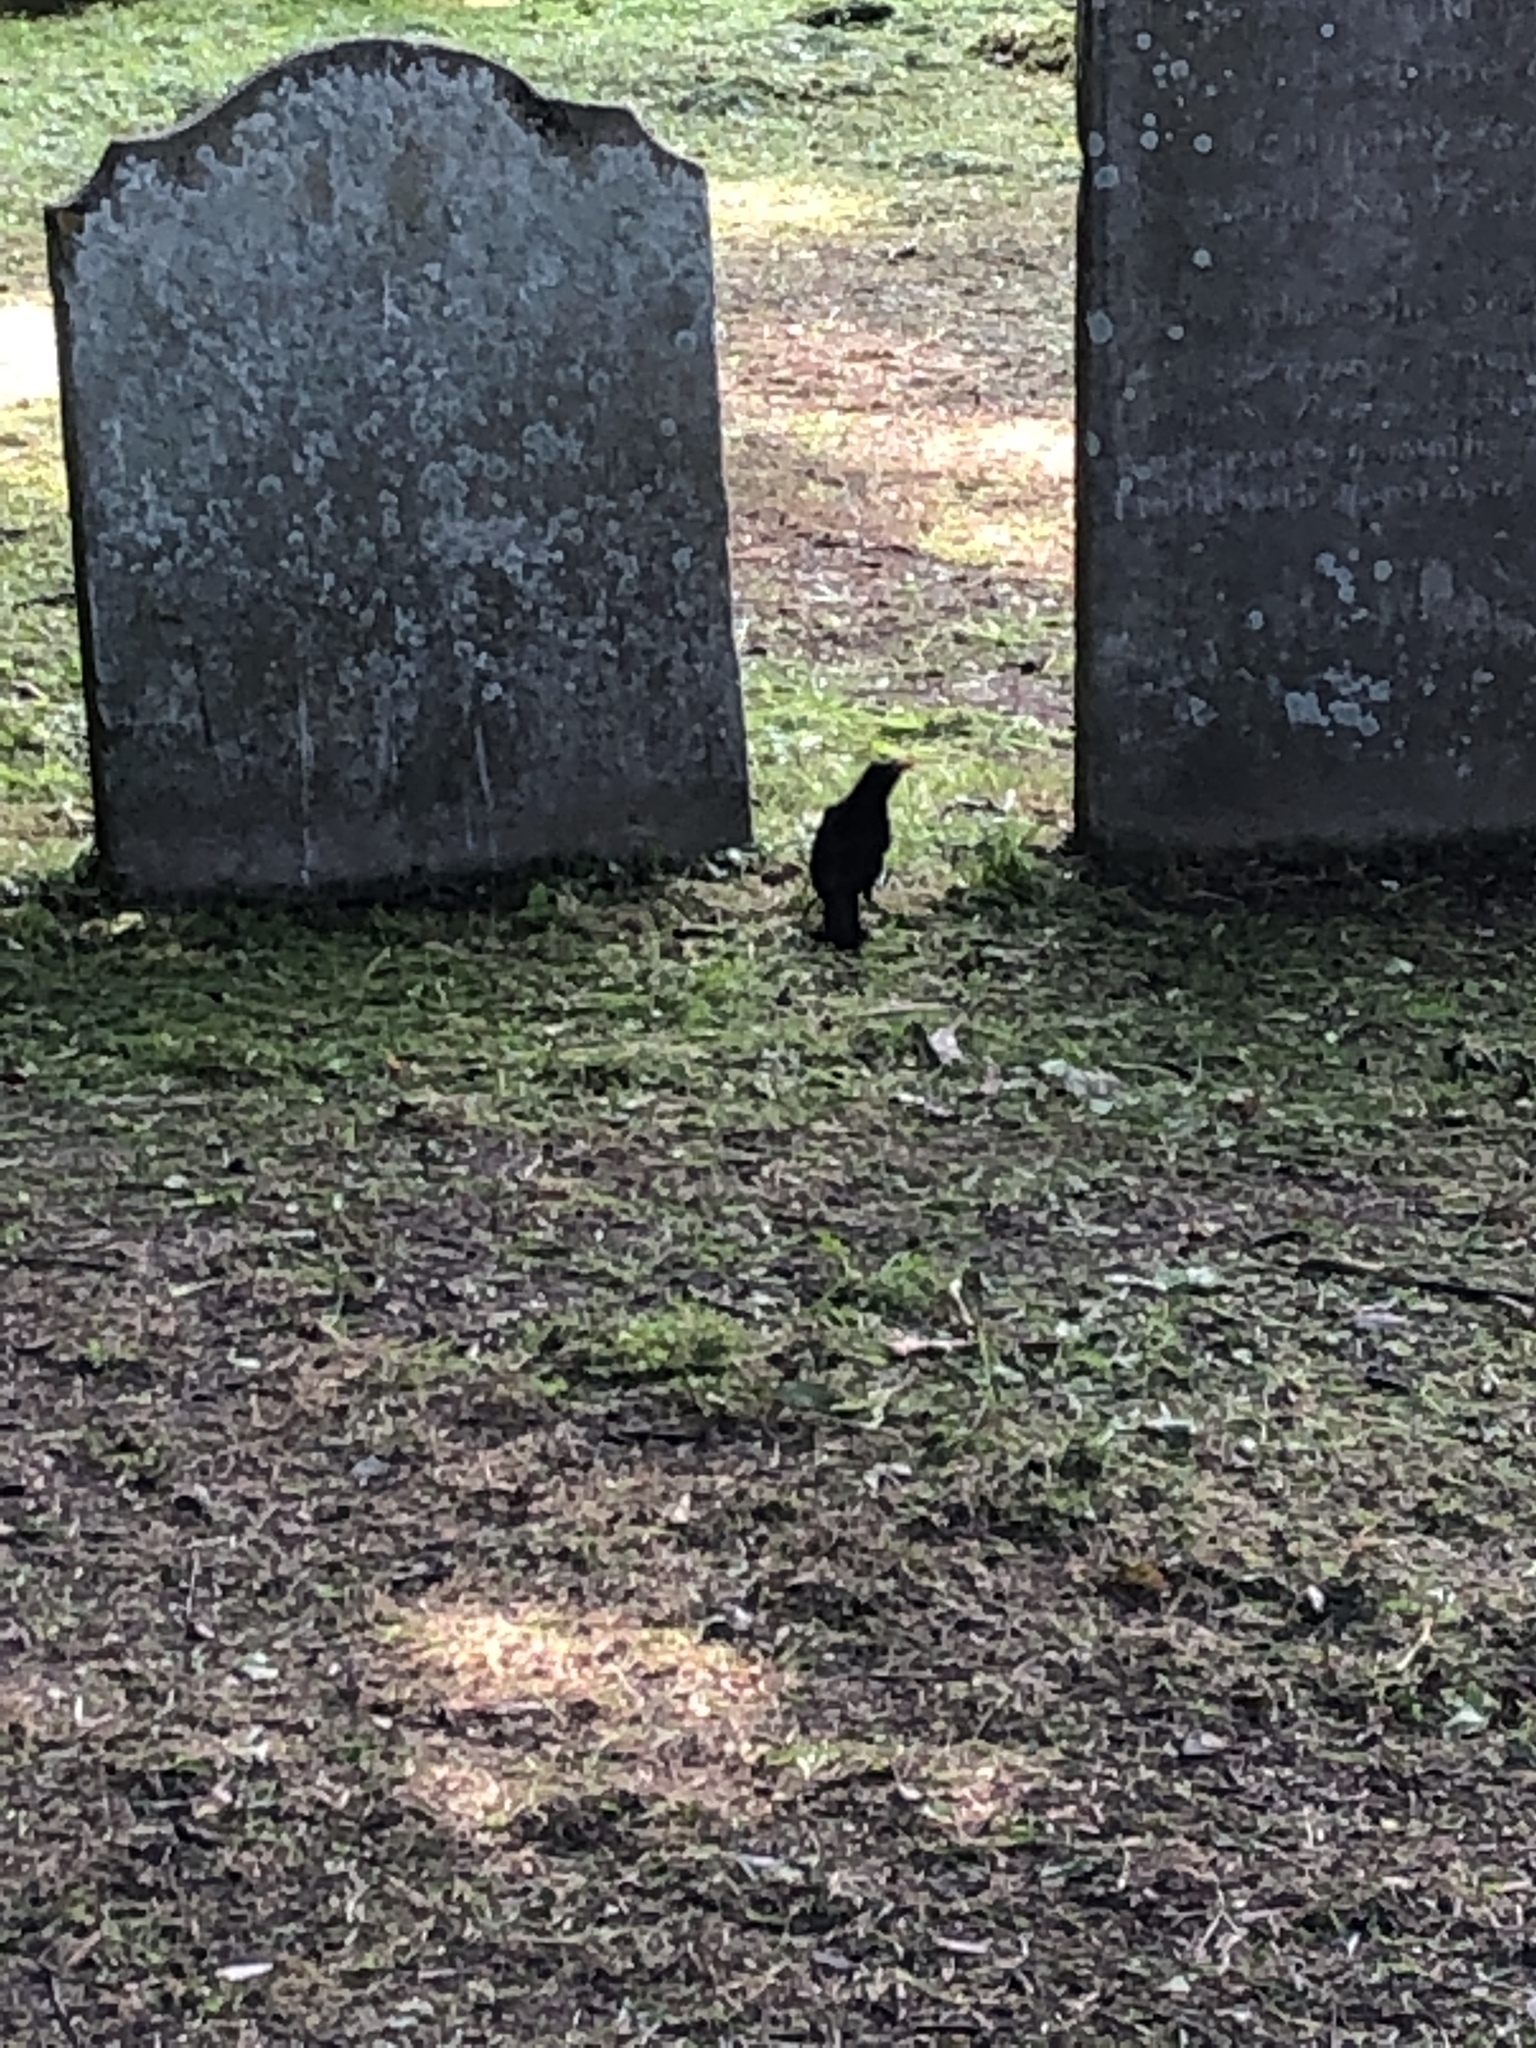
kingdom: Animalia
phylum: Chordata
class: Aves
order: Passeriformes
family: Turdidae
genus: Turdus
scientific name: Turdus merula
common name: Common blackbird
